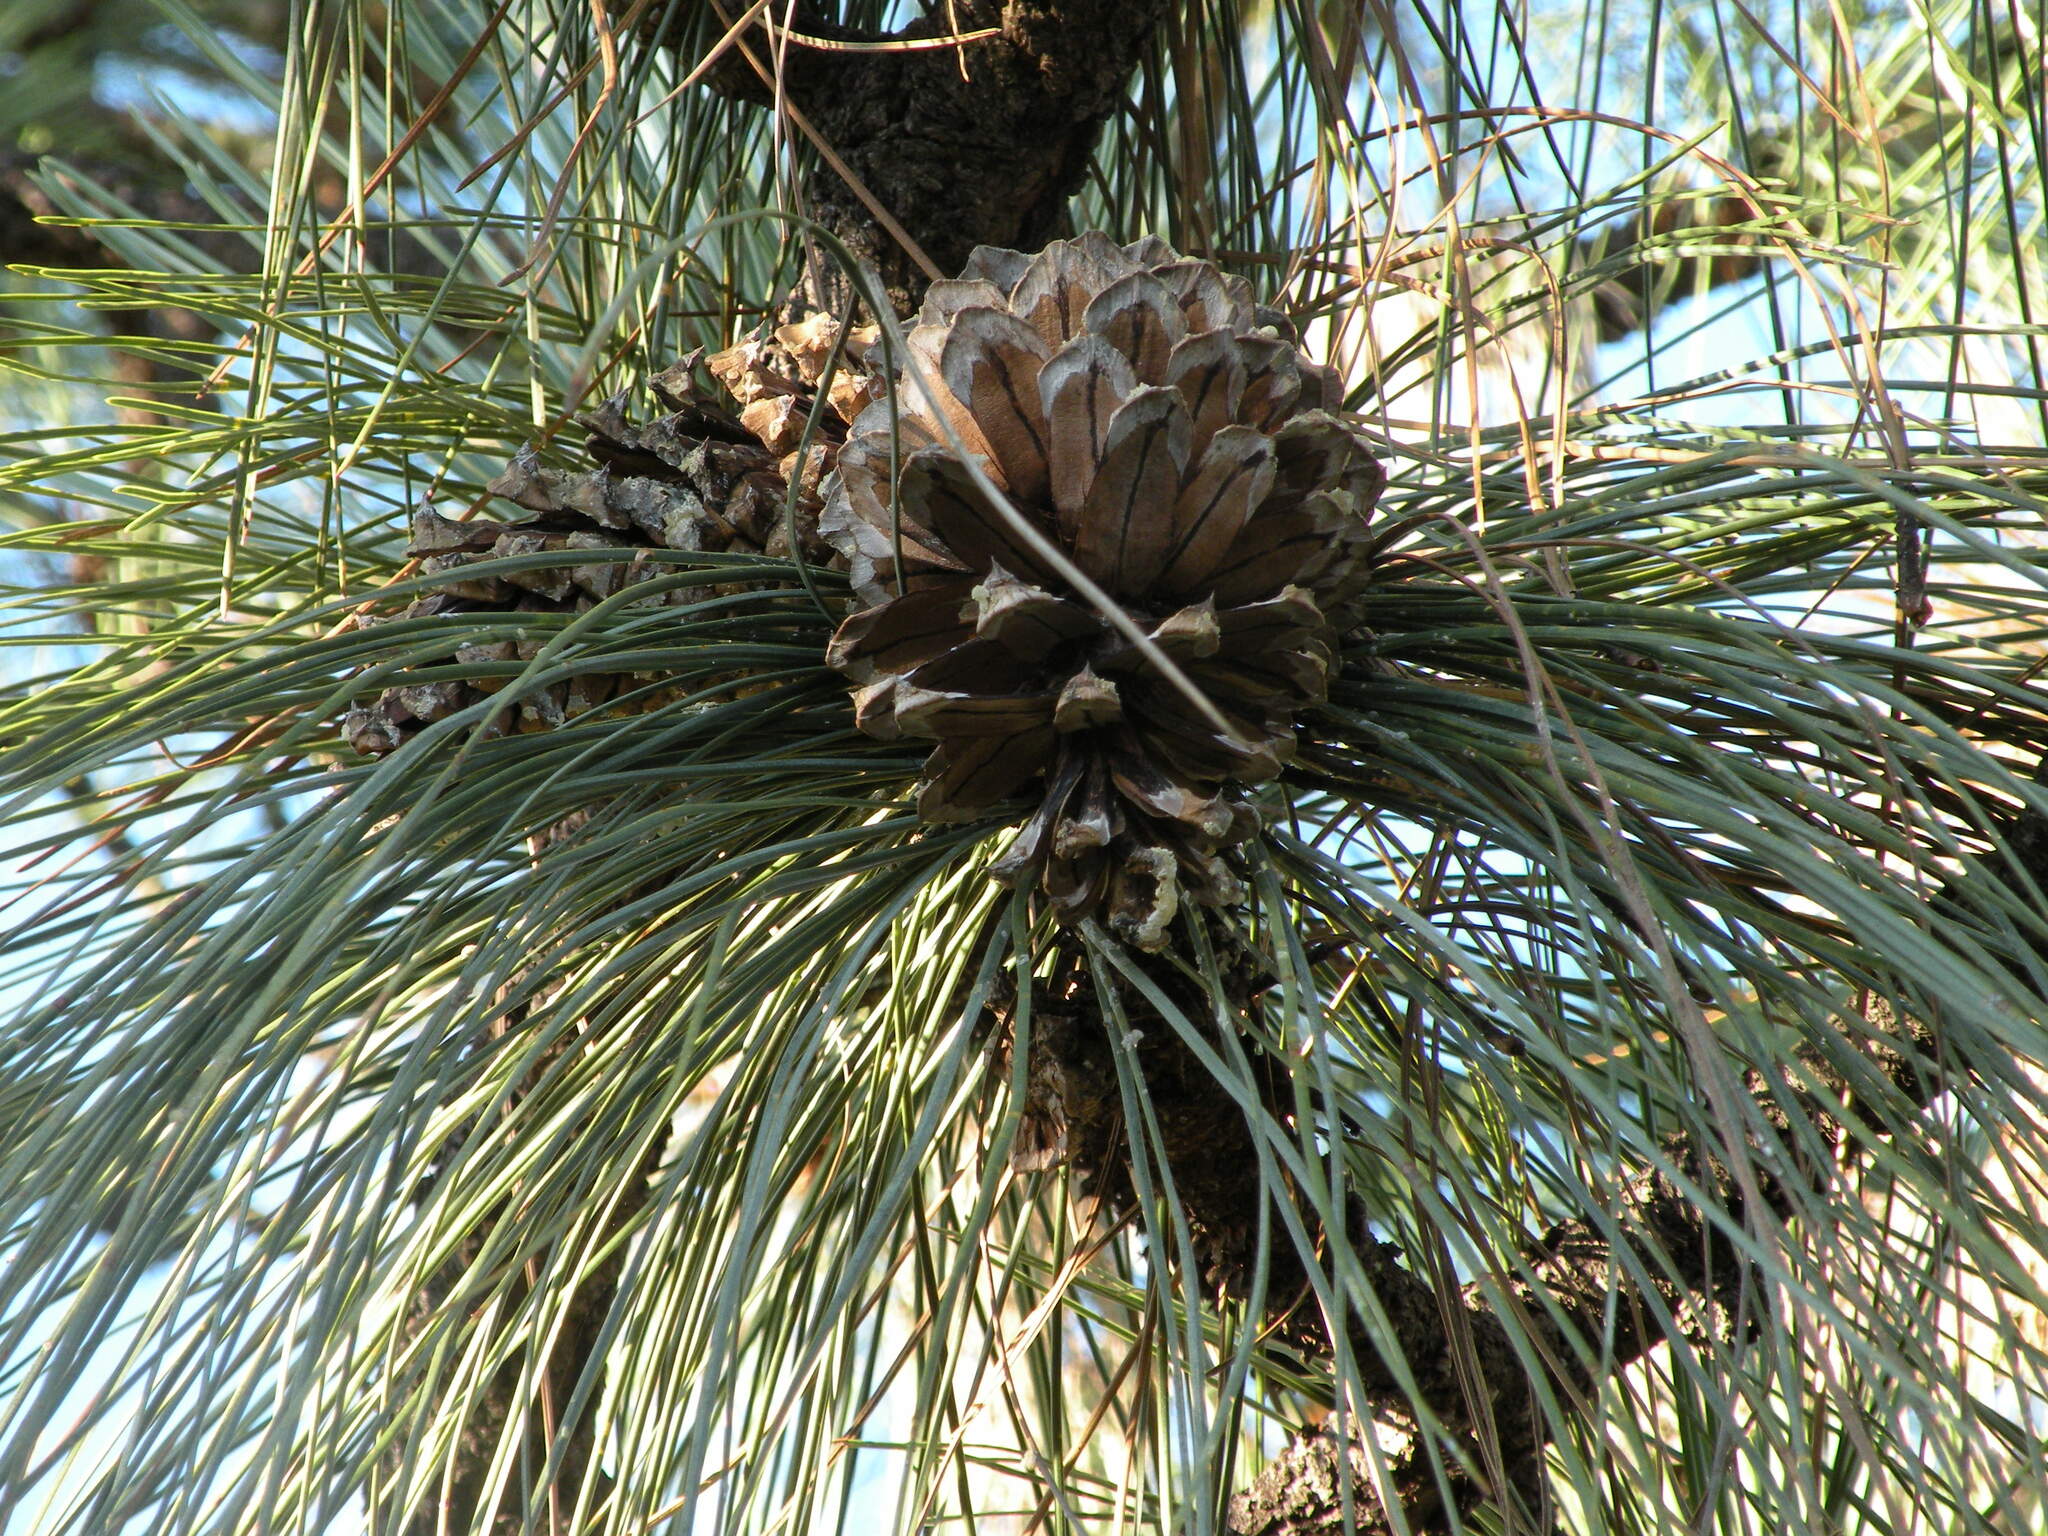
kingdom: Plantae
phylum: Tracheophyta
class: Pinopsida
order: Pinales
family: Pinaceae
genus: Pinus
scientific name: Pinus engelmannii
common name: Apache pine
